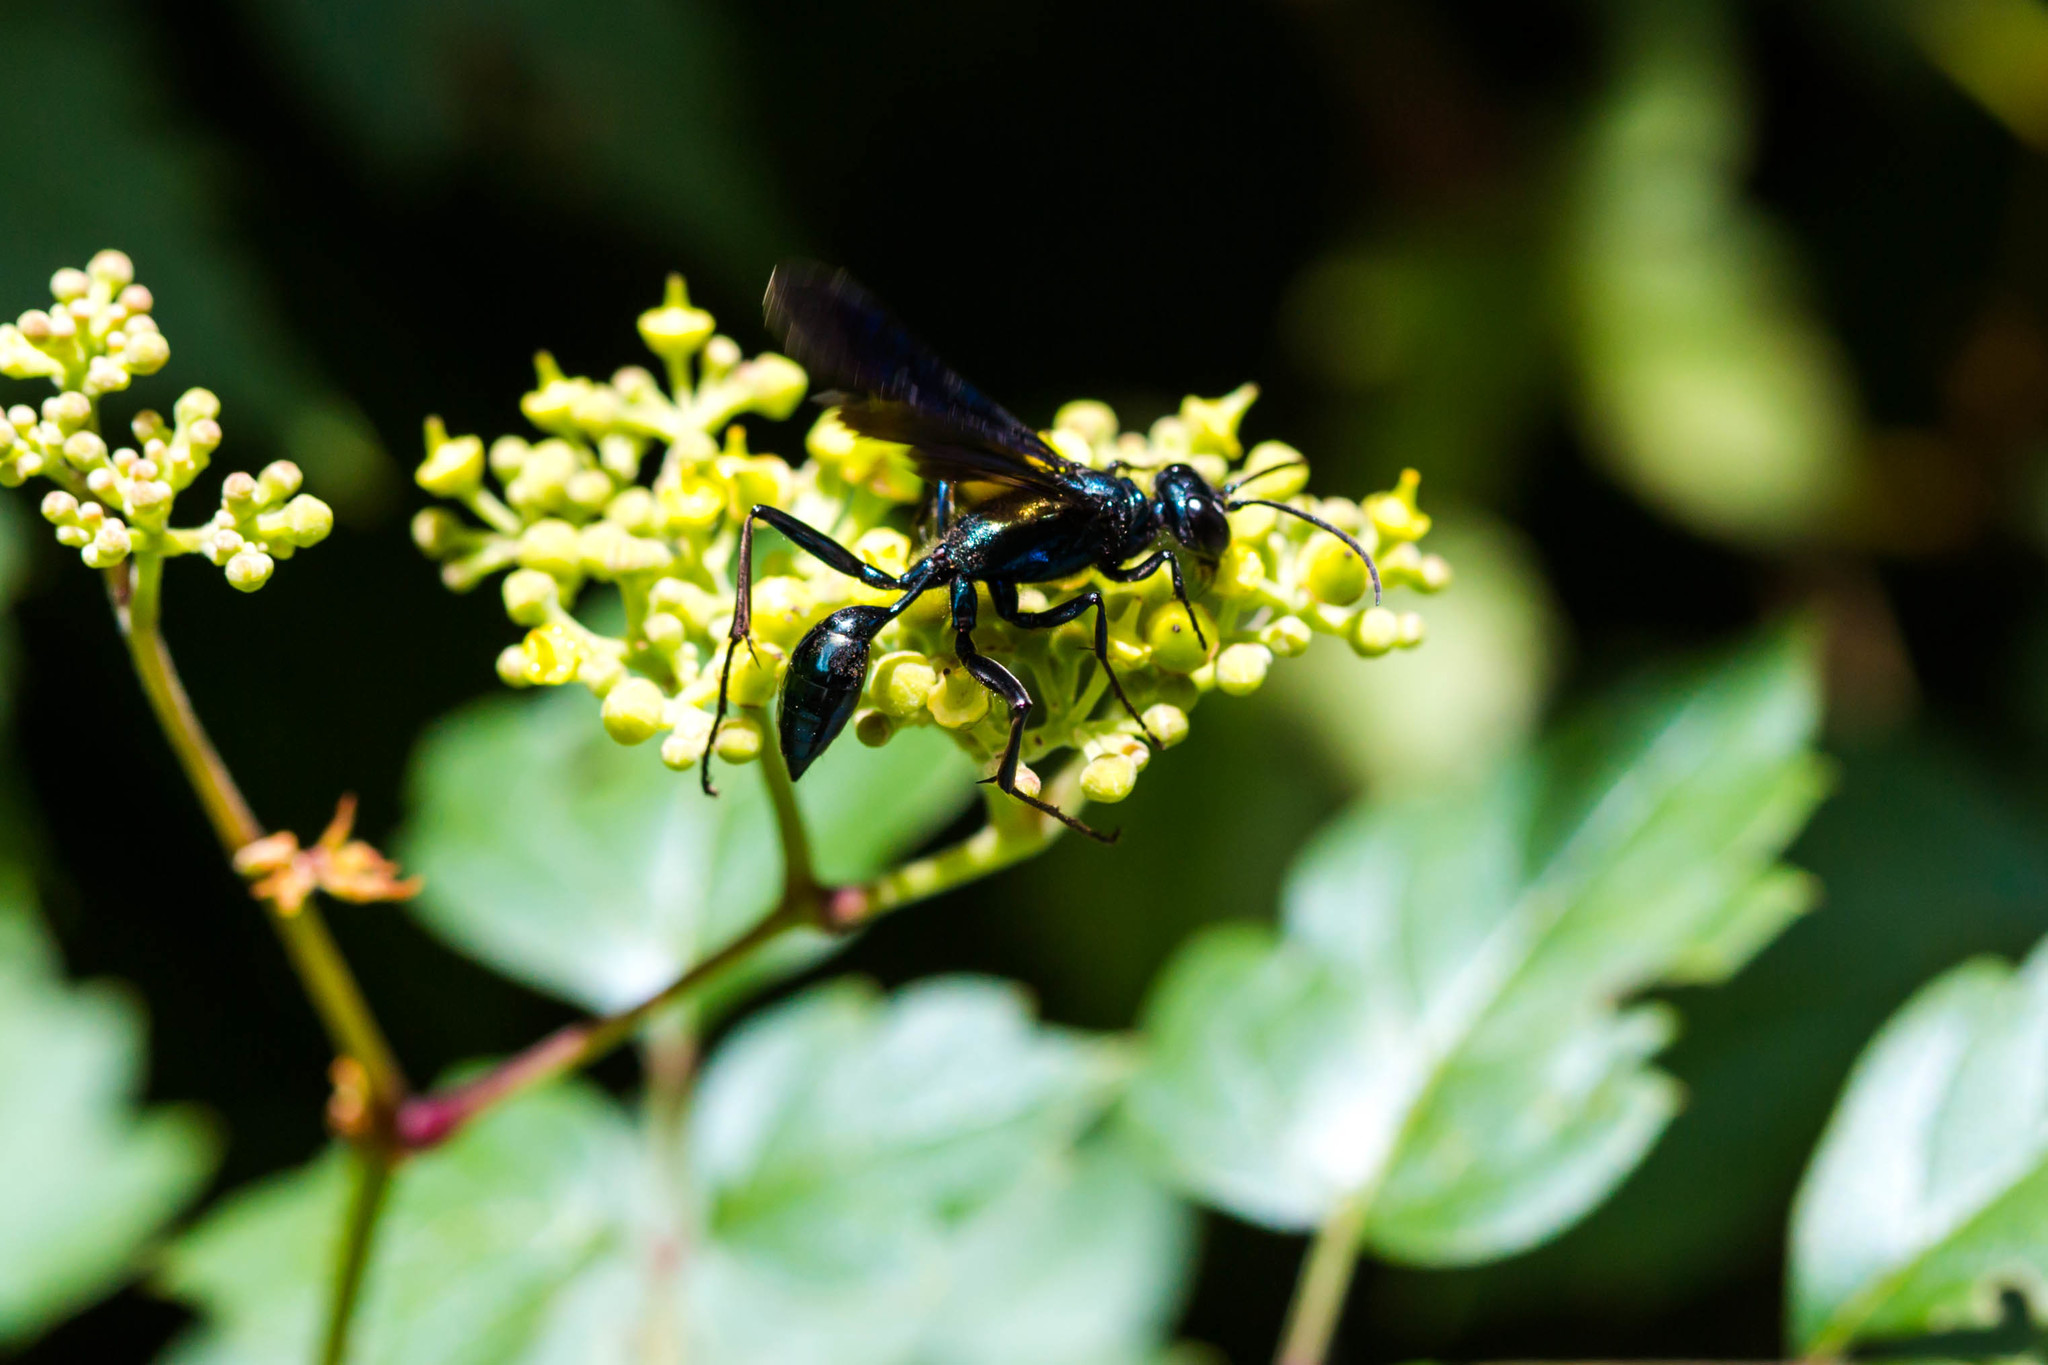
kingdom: Animalia
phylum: Arthropoda
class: Insecta
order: Hymenoptera
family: Sphecidae
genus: Chalybion
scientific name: Chalybion californicum
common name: Mud dauber
